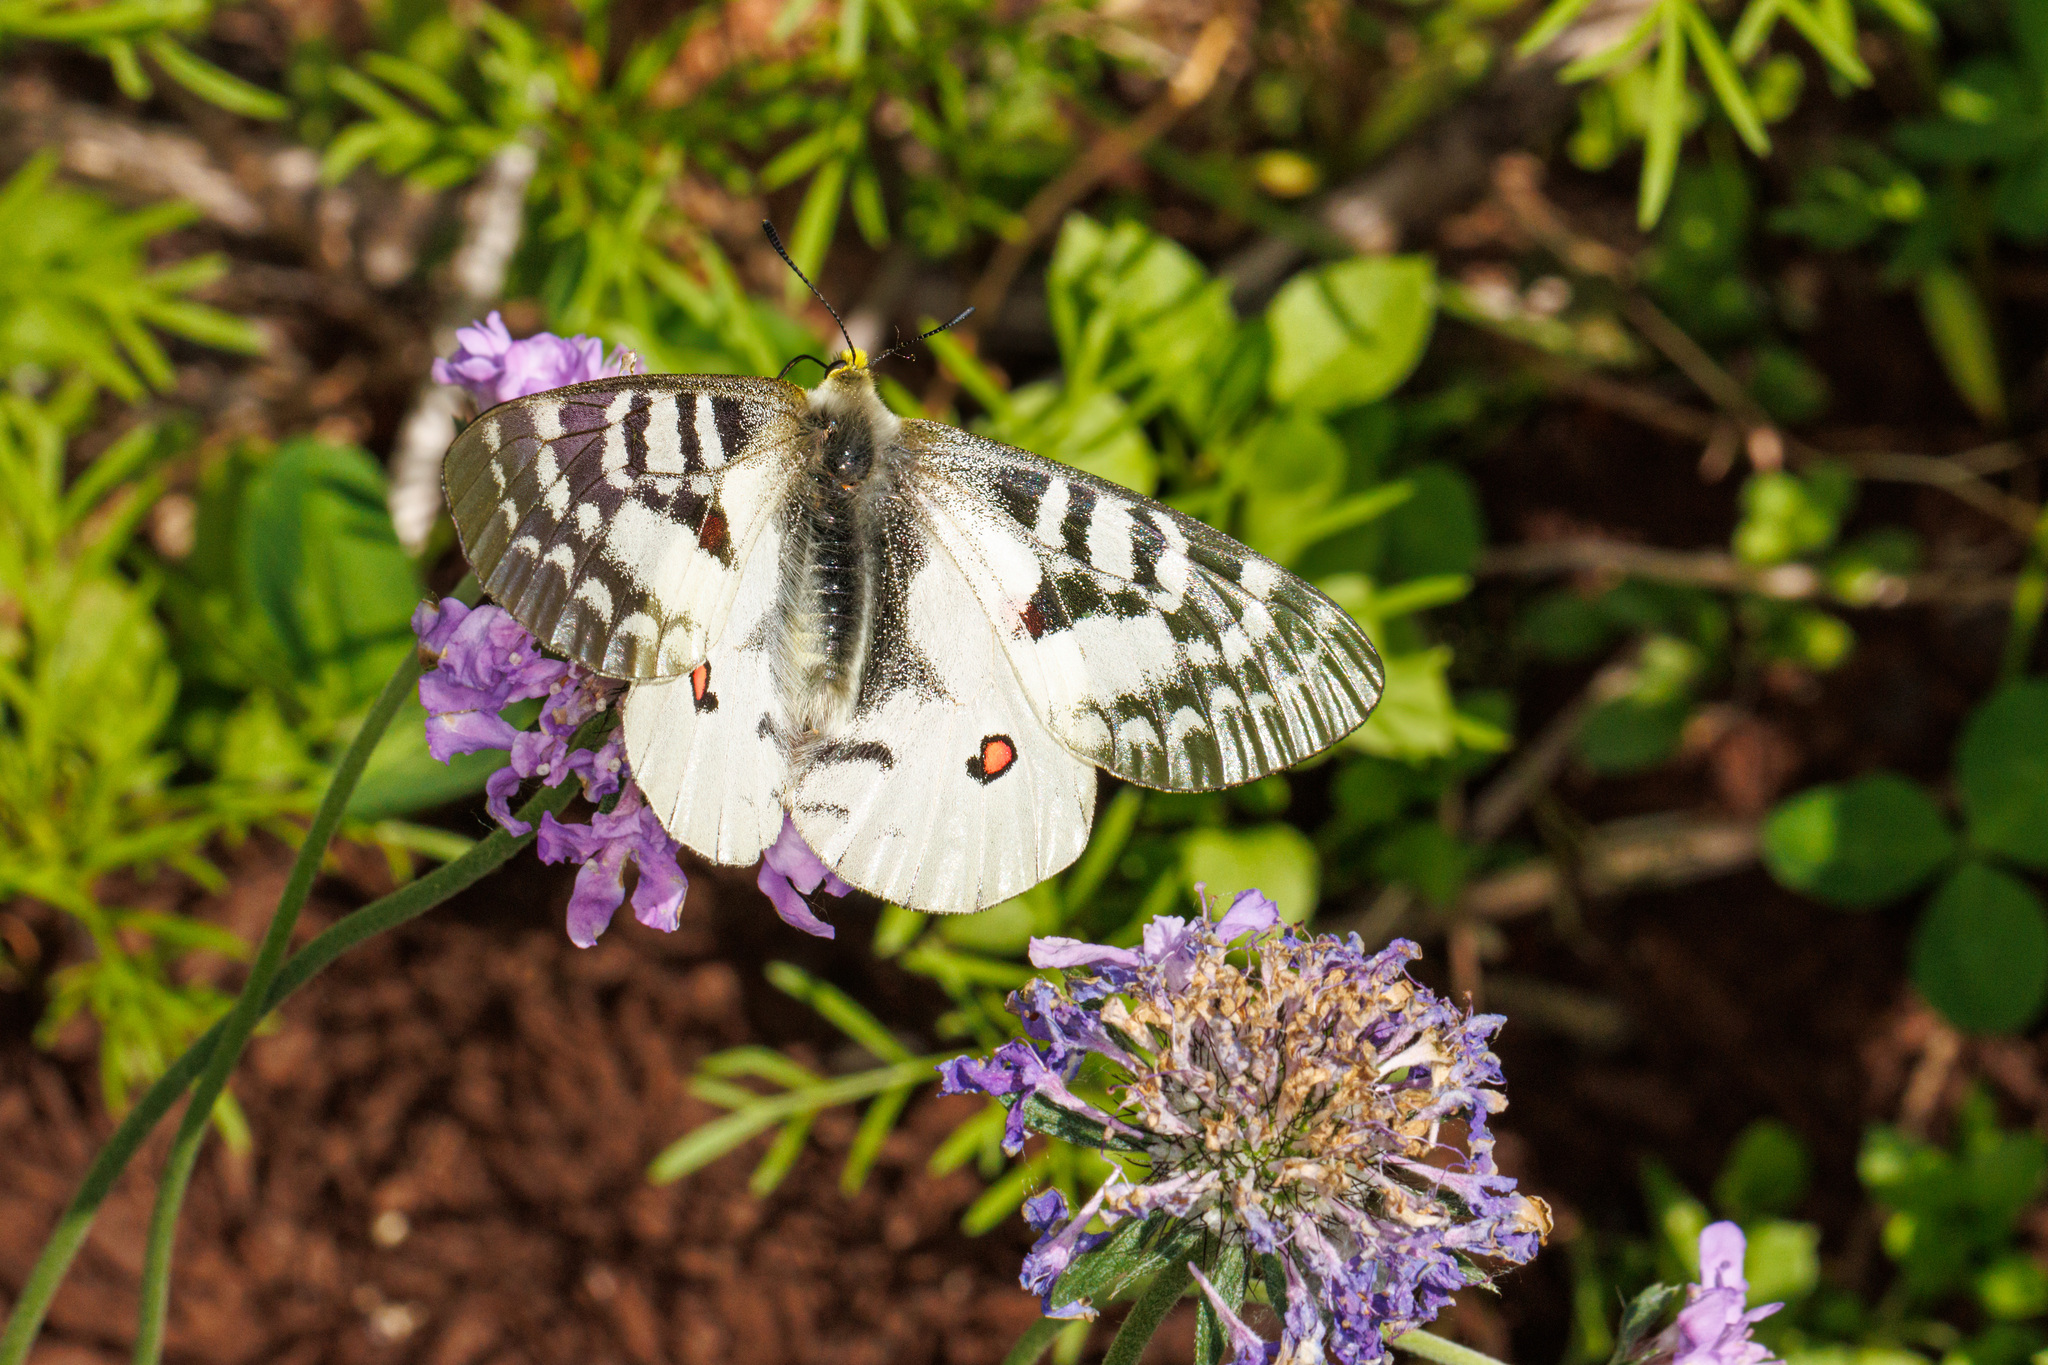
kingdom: Animalia
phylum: Arthropoda
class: Insecta
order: Lepidoptera
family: Papilionidae
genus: Parnassius
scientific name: Parnassius clodius
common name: American apollo
